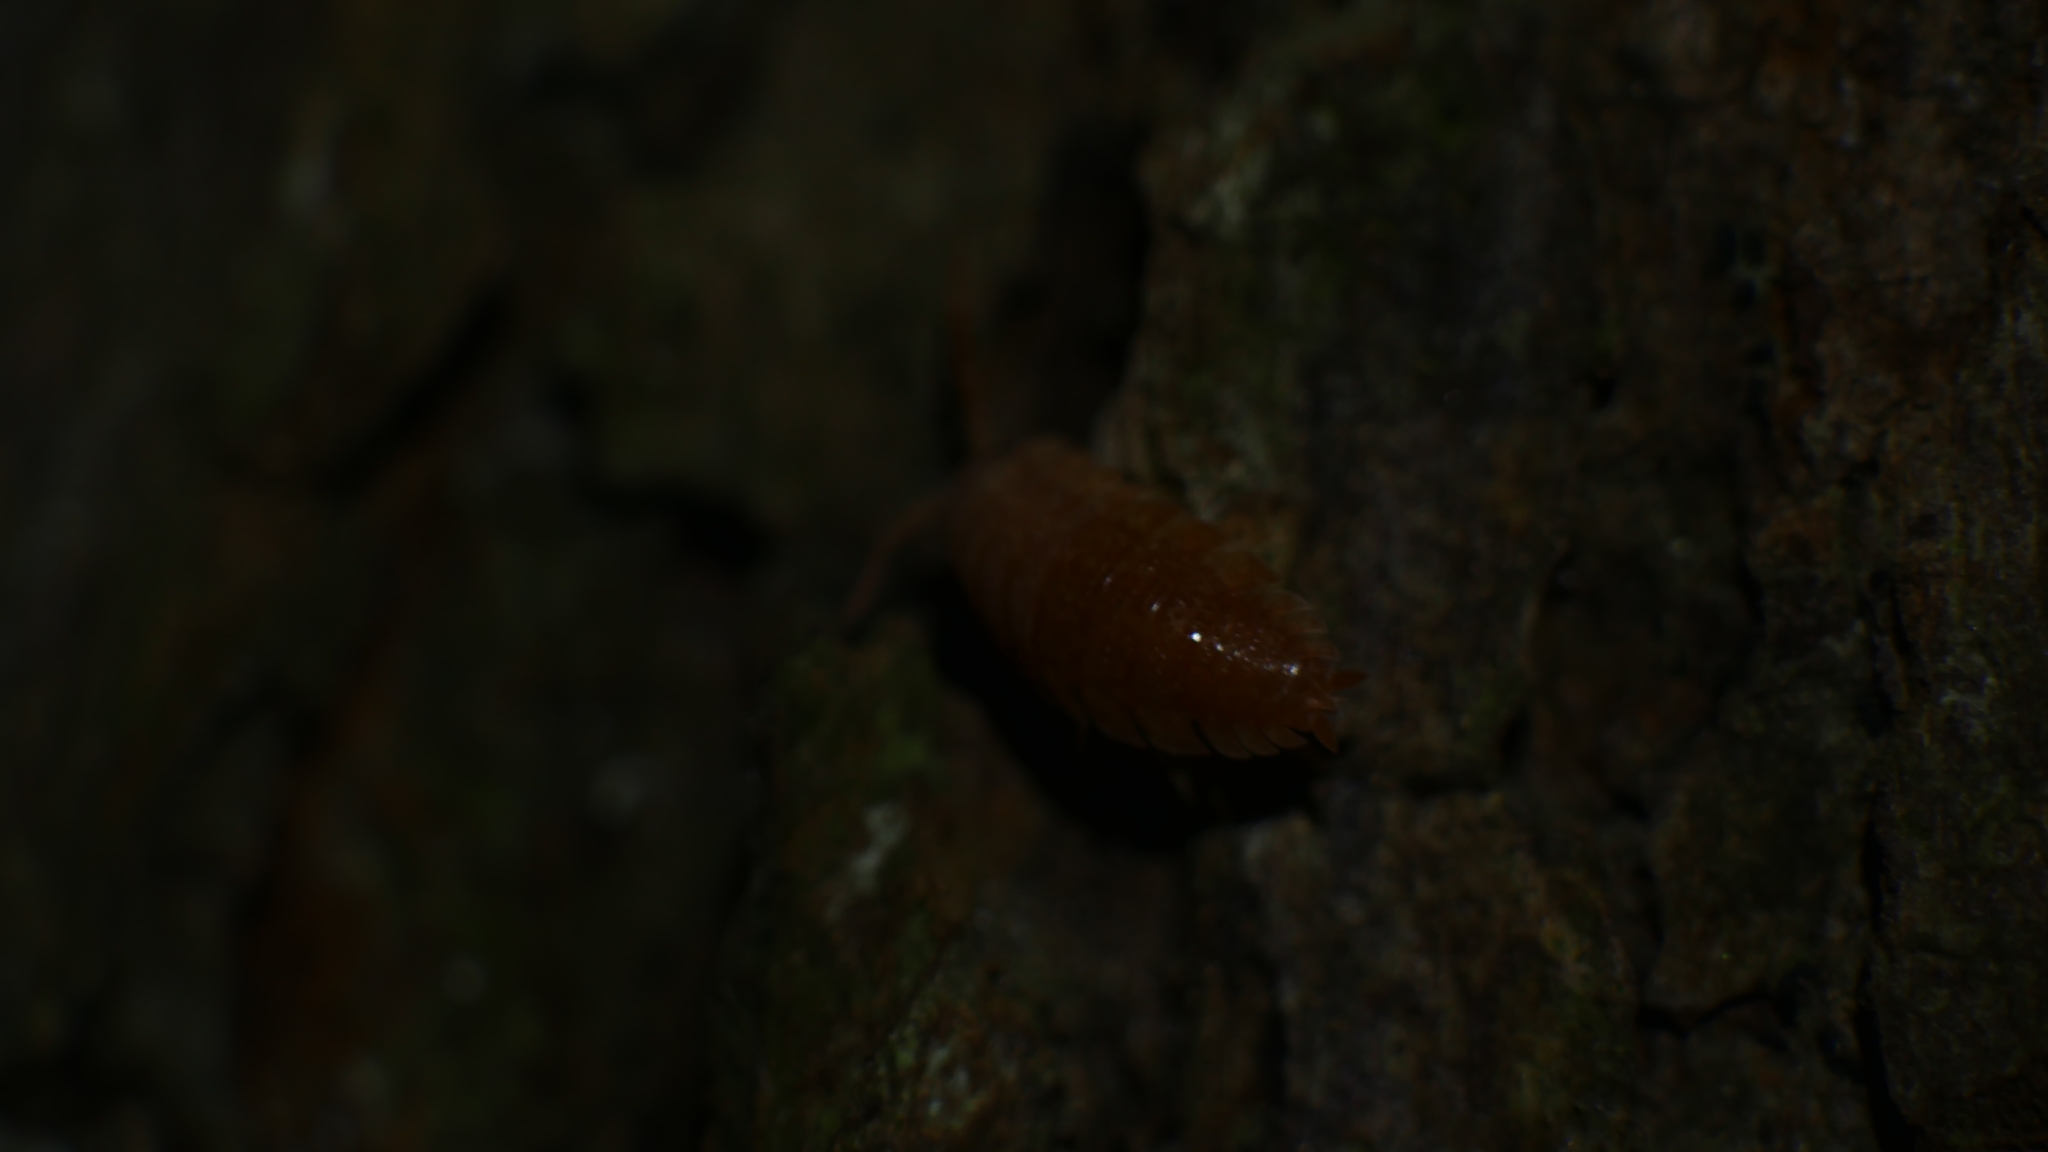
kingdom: Animalia
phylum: Arthropoda
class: Malacostraca
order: Isopoda
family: Porcellionidae
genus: Porcellio
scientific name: Porcellio scaber
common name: Common rough woodlouse
